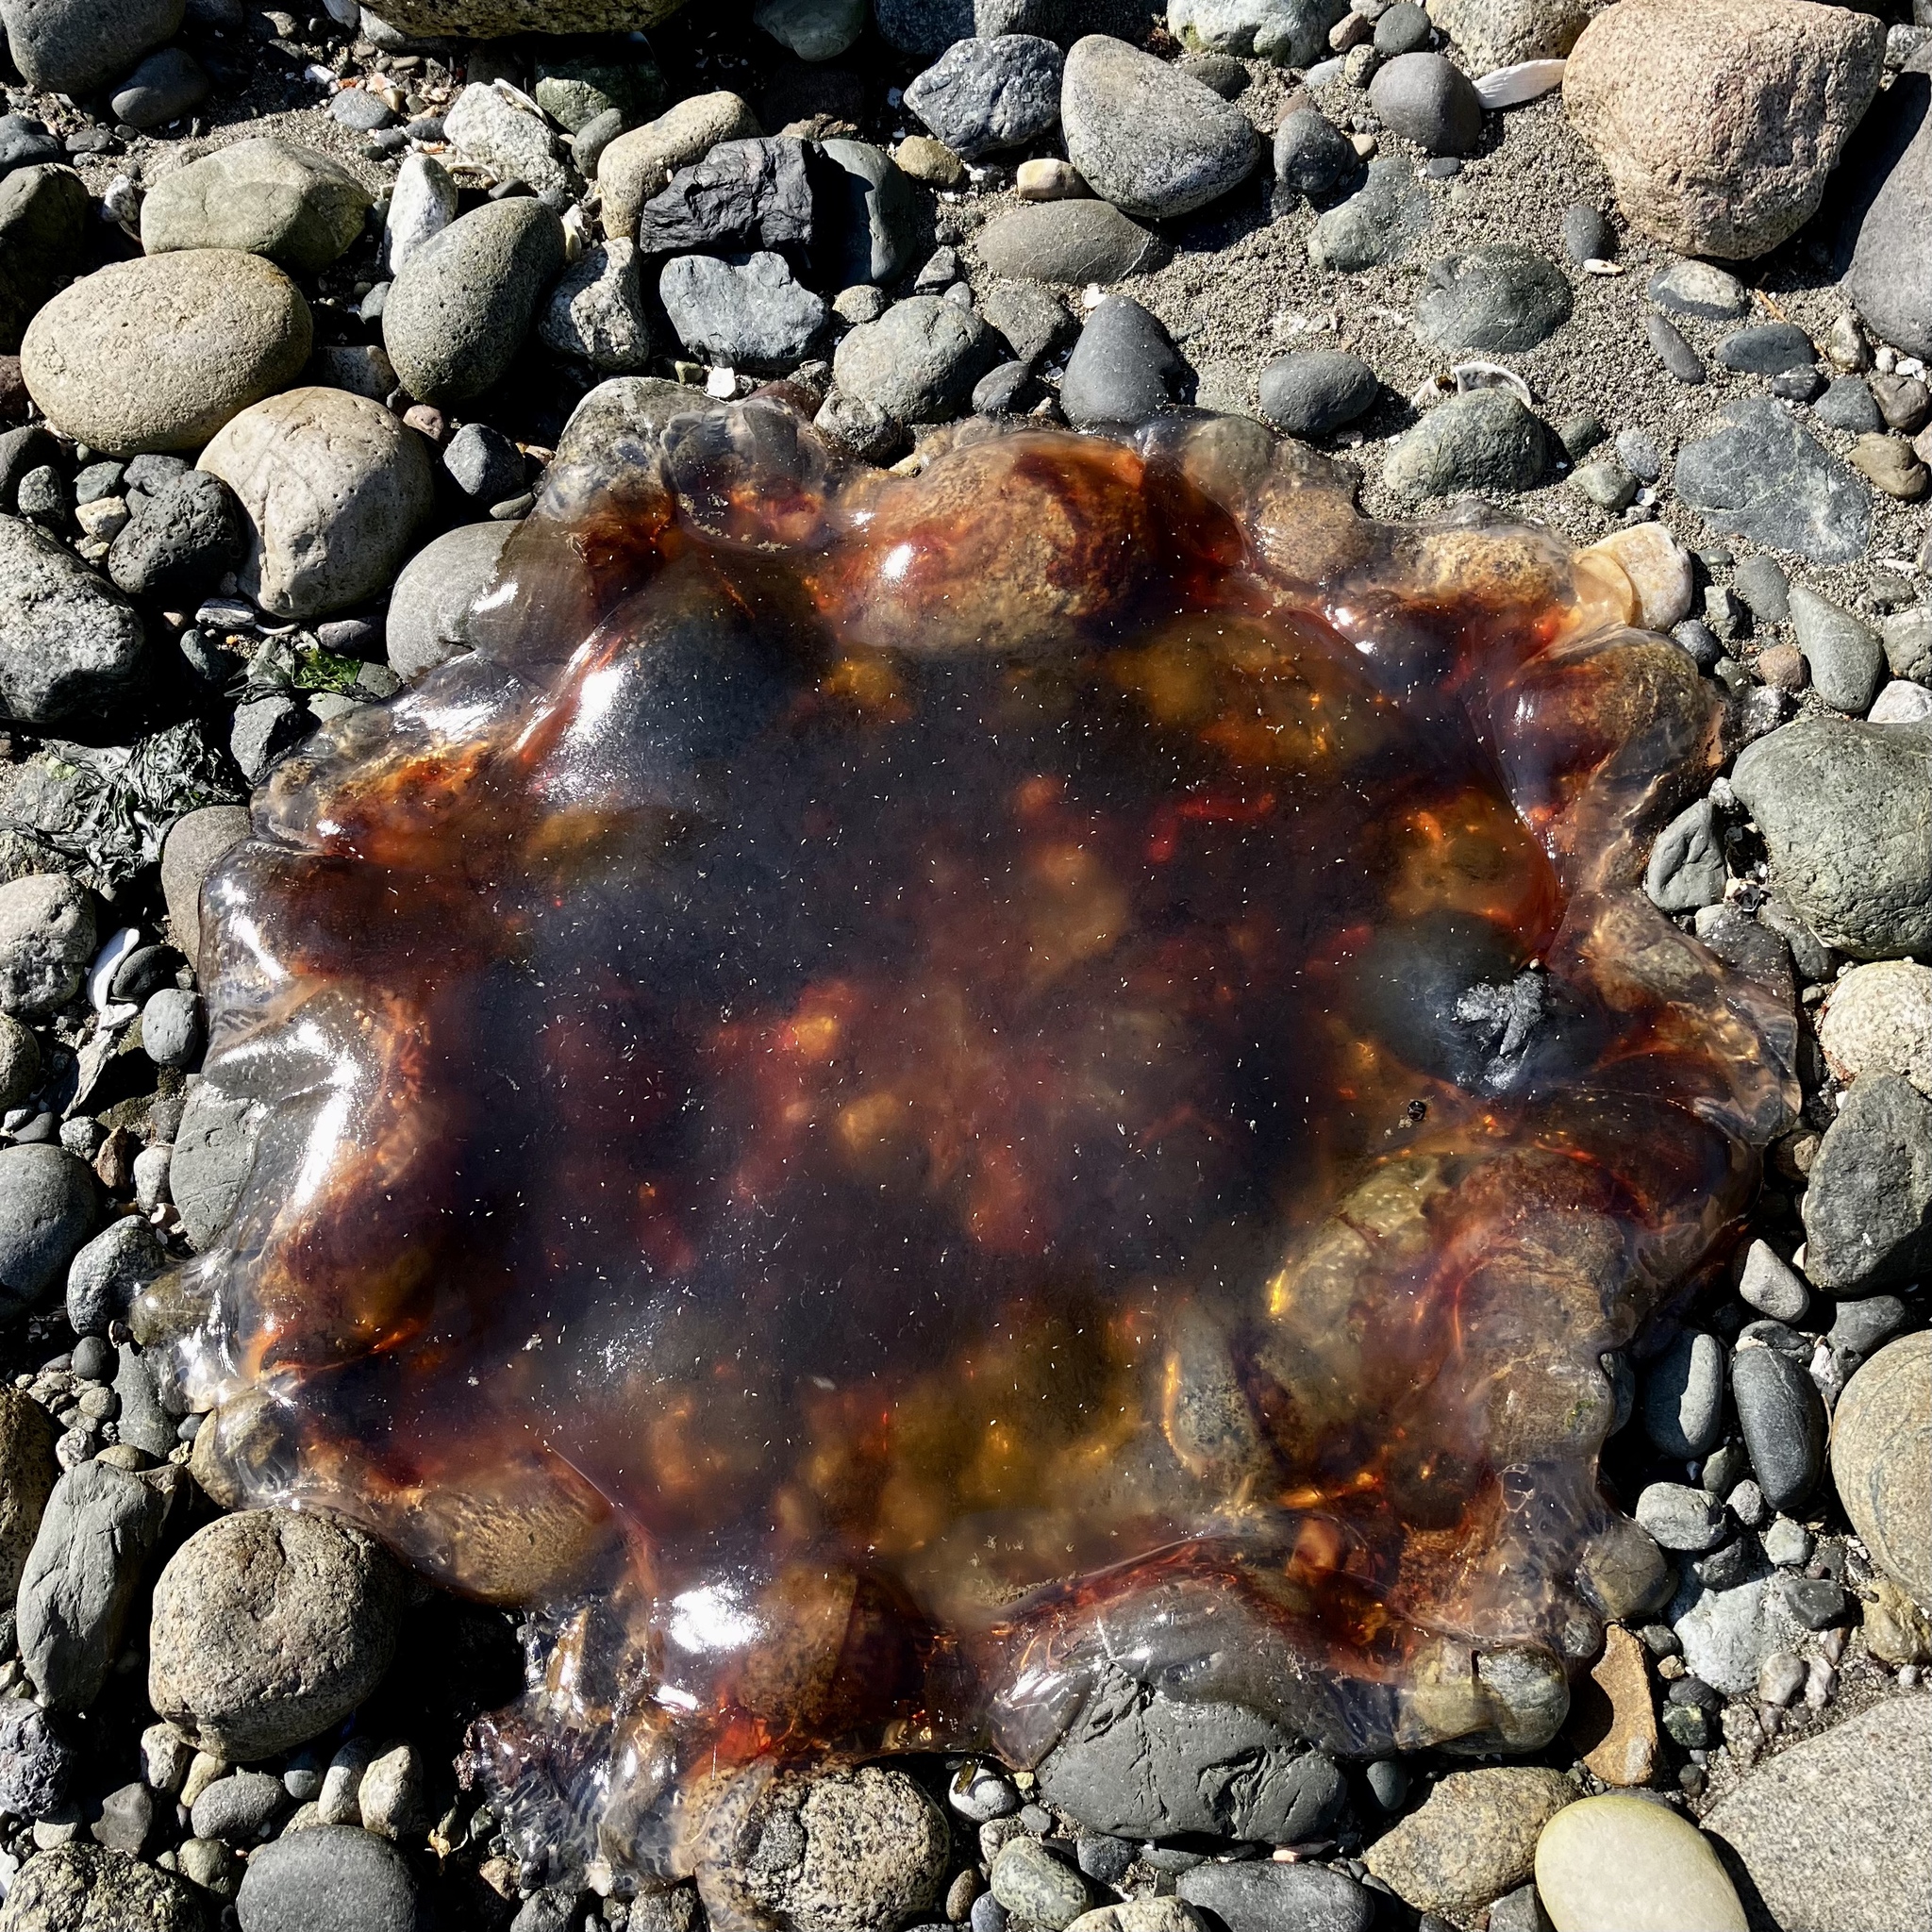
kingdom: Animalia
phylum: Cnidaria
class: Scyphozoa
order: Semaeostomeae
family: Cyaneidae
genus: Cyanea
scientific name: Cyanea ferruginea
